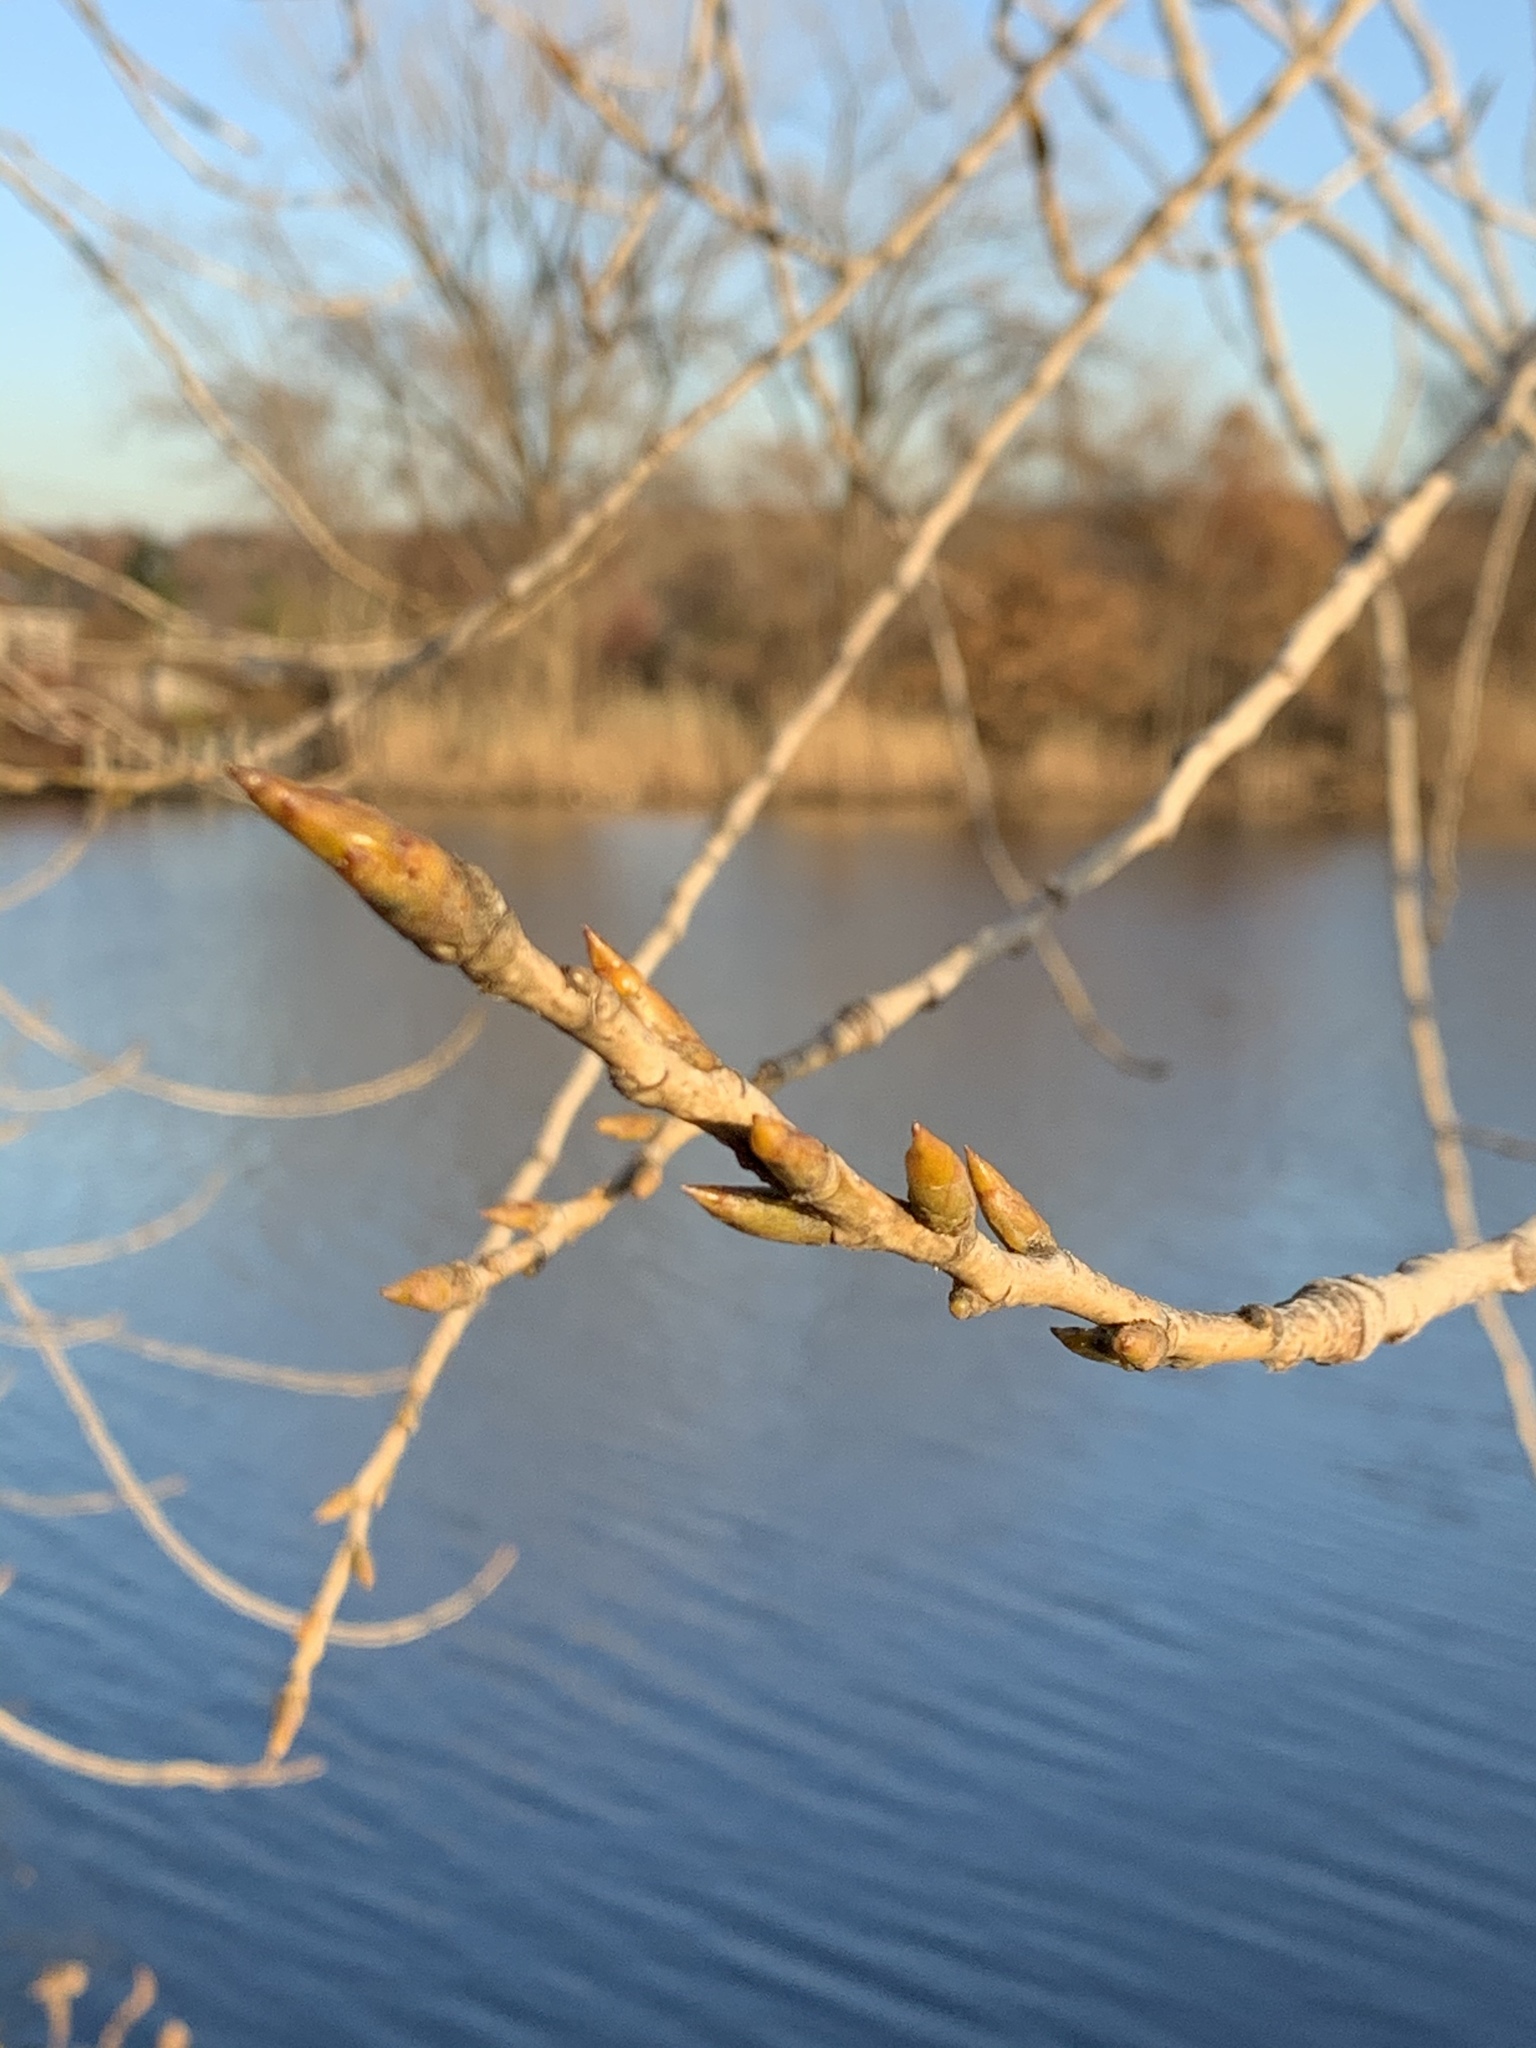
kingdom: Plantae
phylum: Tracheophyta
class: Magnoliopsida
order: Malpighiales
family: Salicaceae
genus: Populus
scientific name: Populus deltoides
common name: Eastern cottonwood
